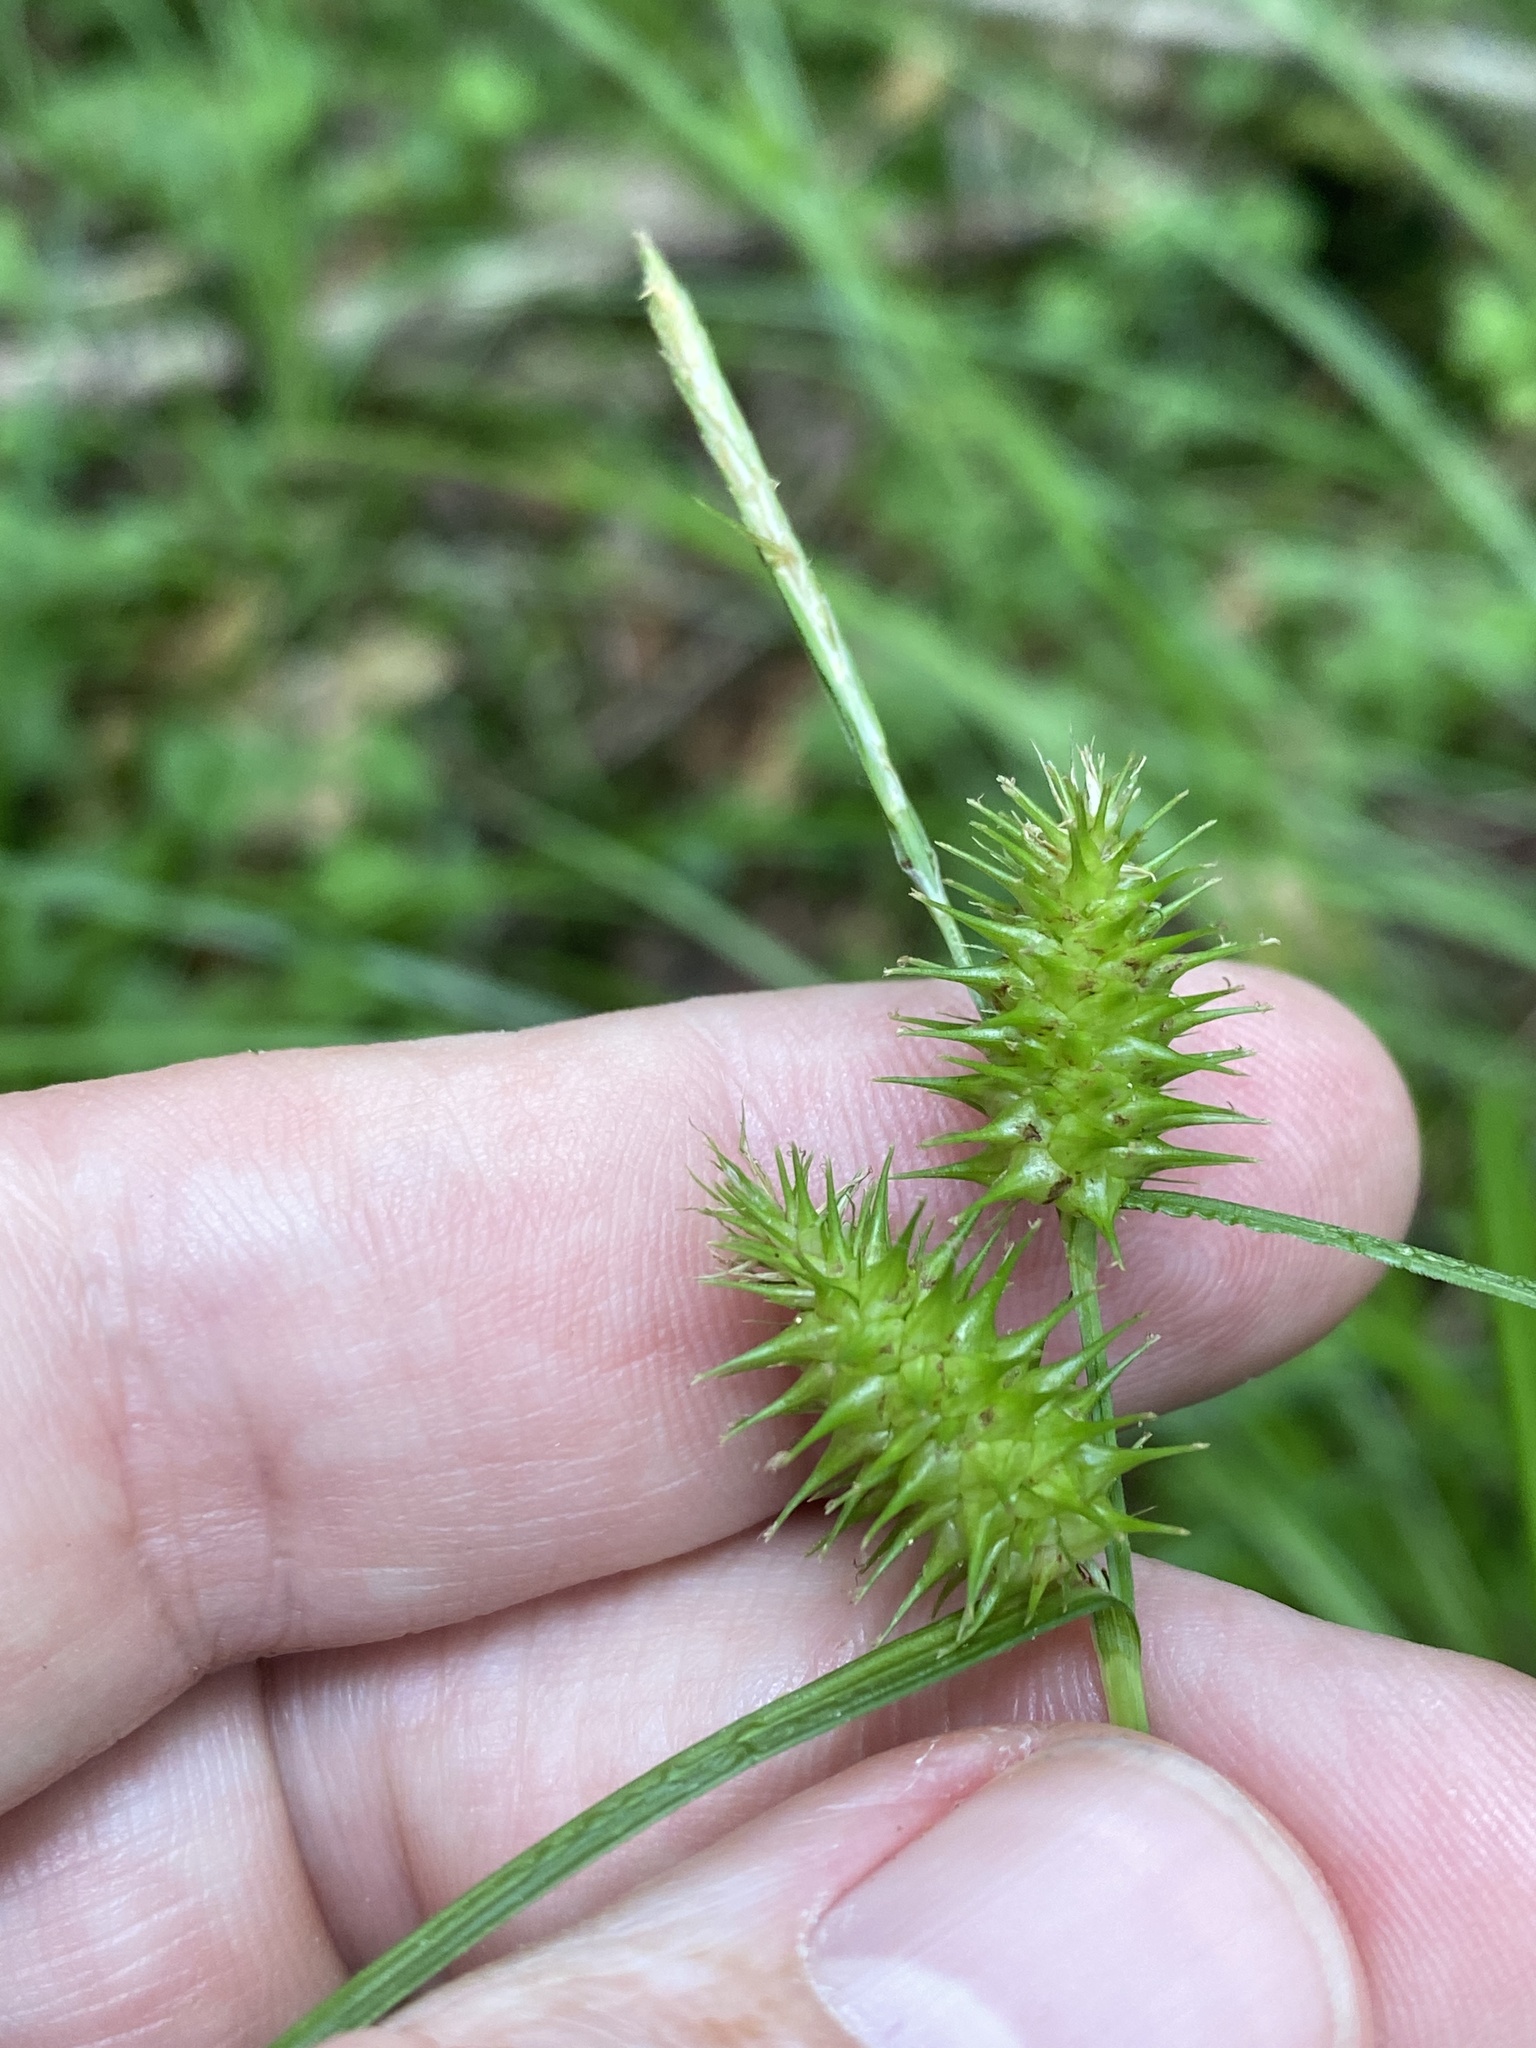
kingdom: Plantae
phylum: Tracheophyta
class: Liliopsida
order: Poales
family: Cyperaceae
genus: Carex
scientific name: Carex lurida
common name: Sallow sedge
